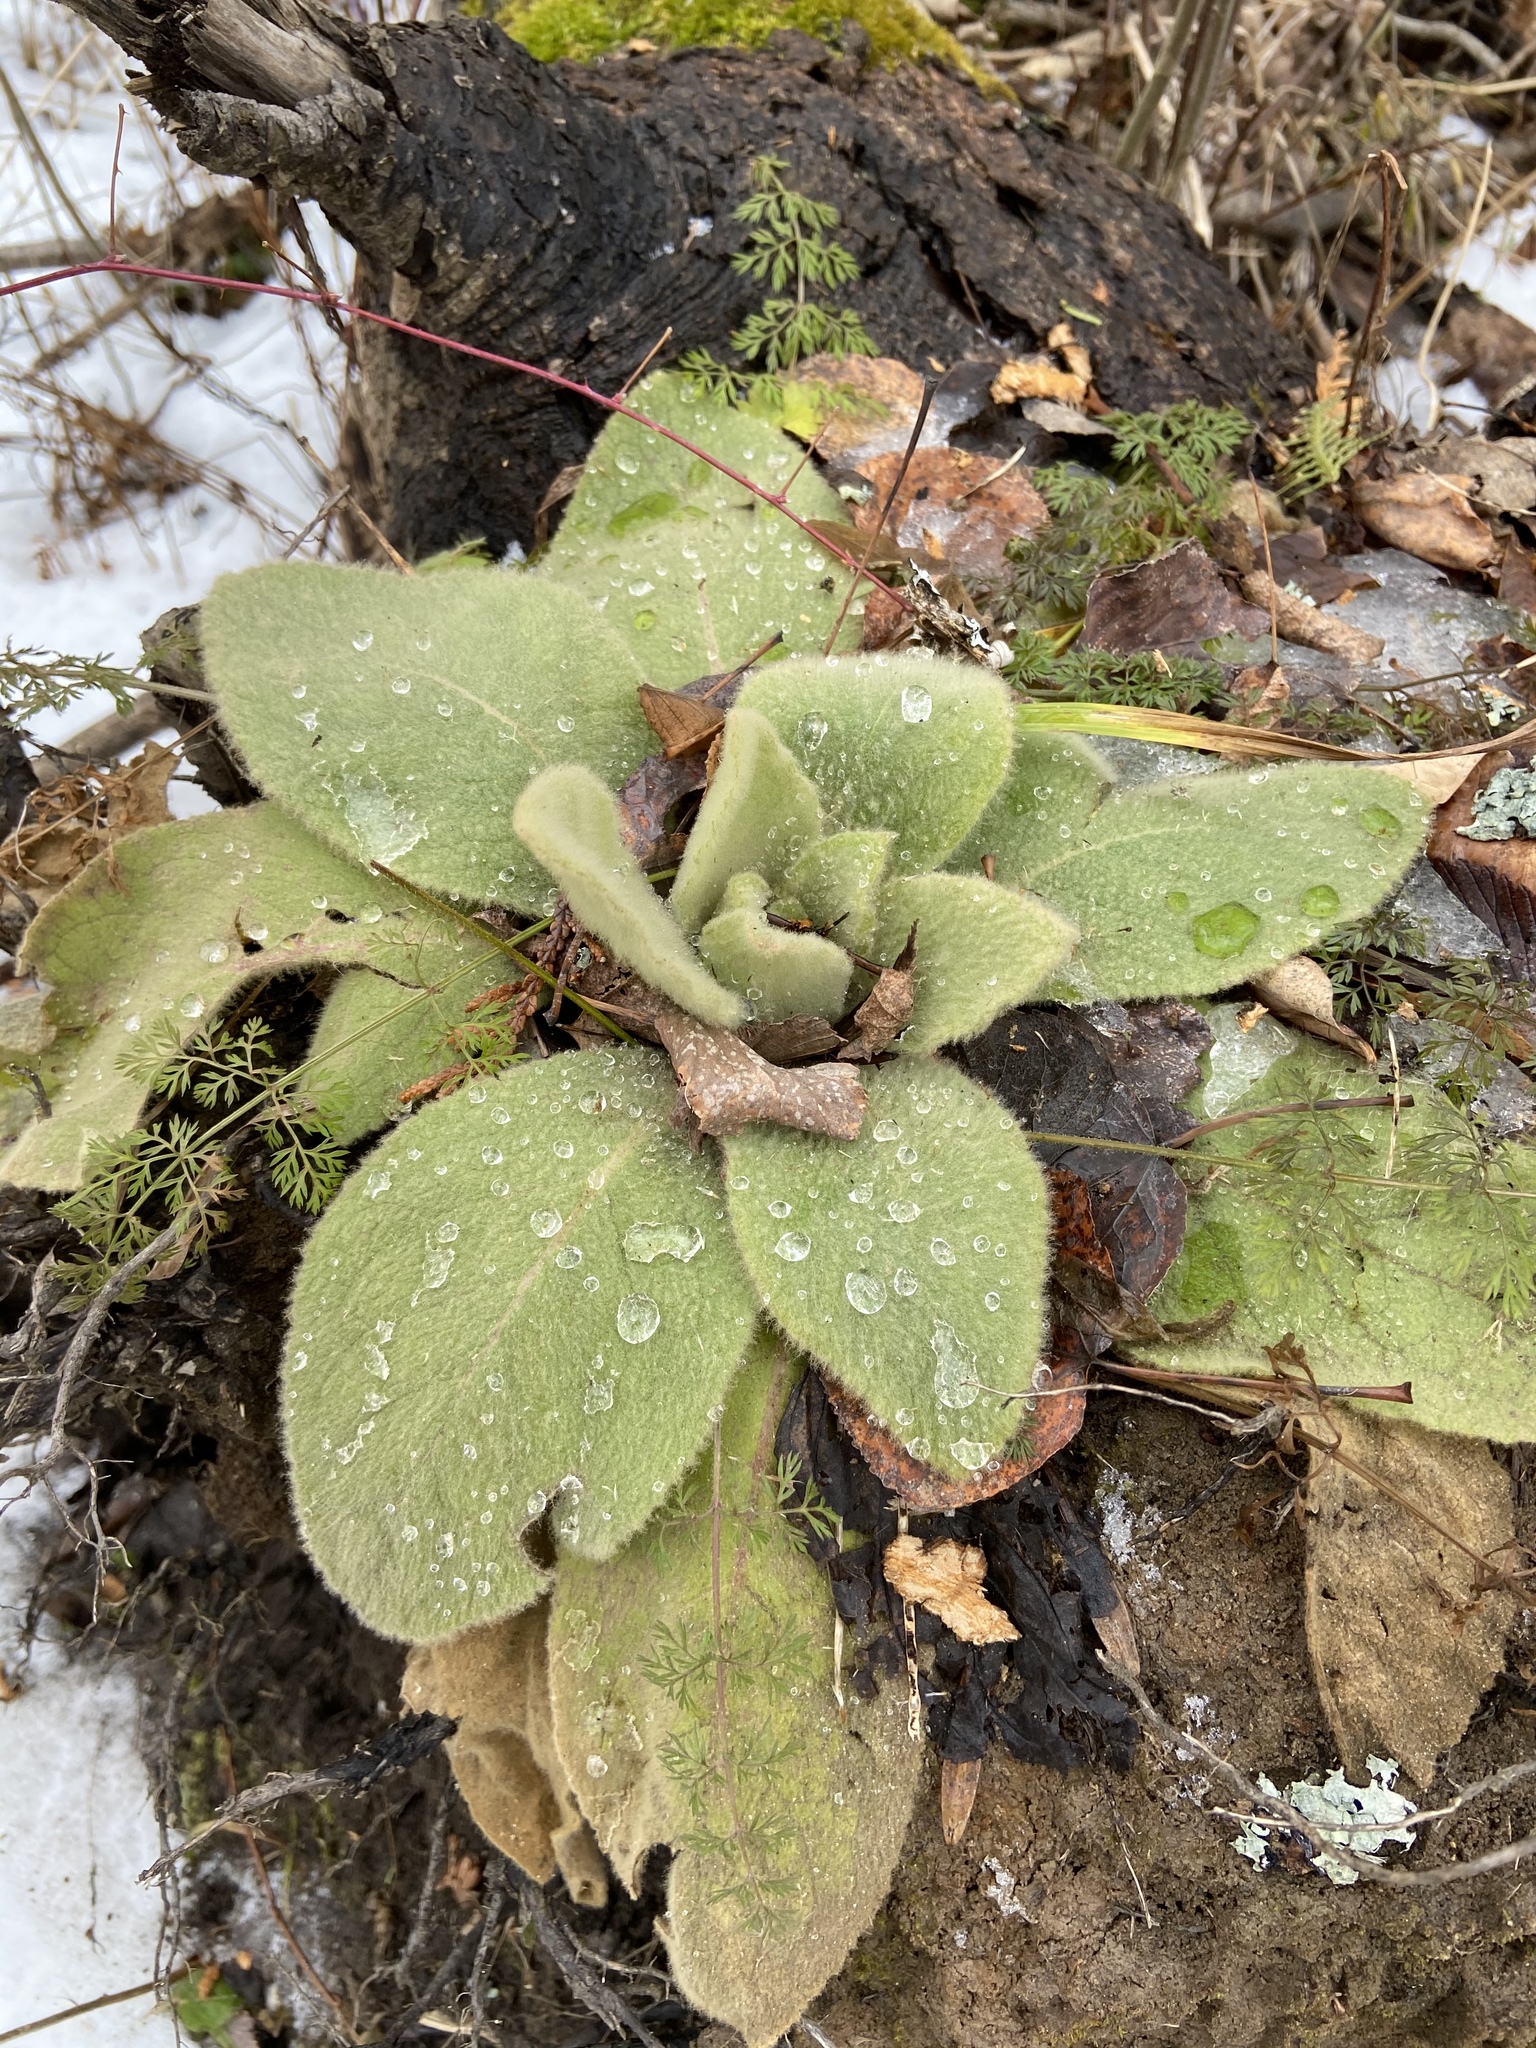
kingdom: Plantae
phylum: Tracheophyta
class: Magnoliopsida
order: Lamiales
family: Scrophulariaceae
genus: Verbascum
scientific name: Verbascum thapsus
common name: Common mullein
